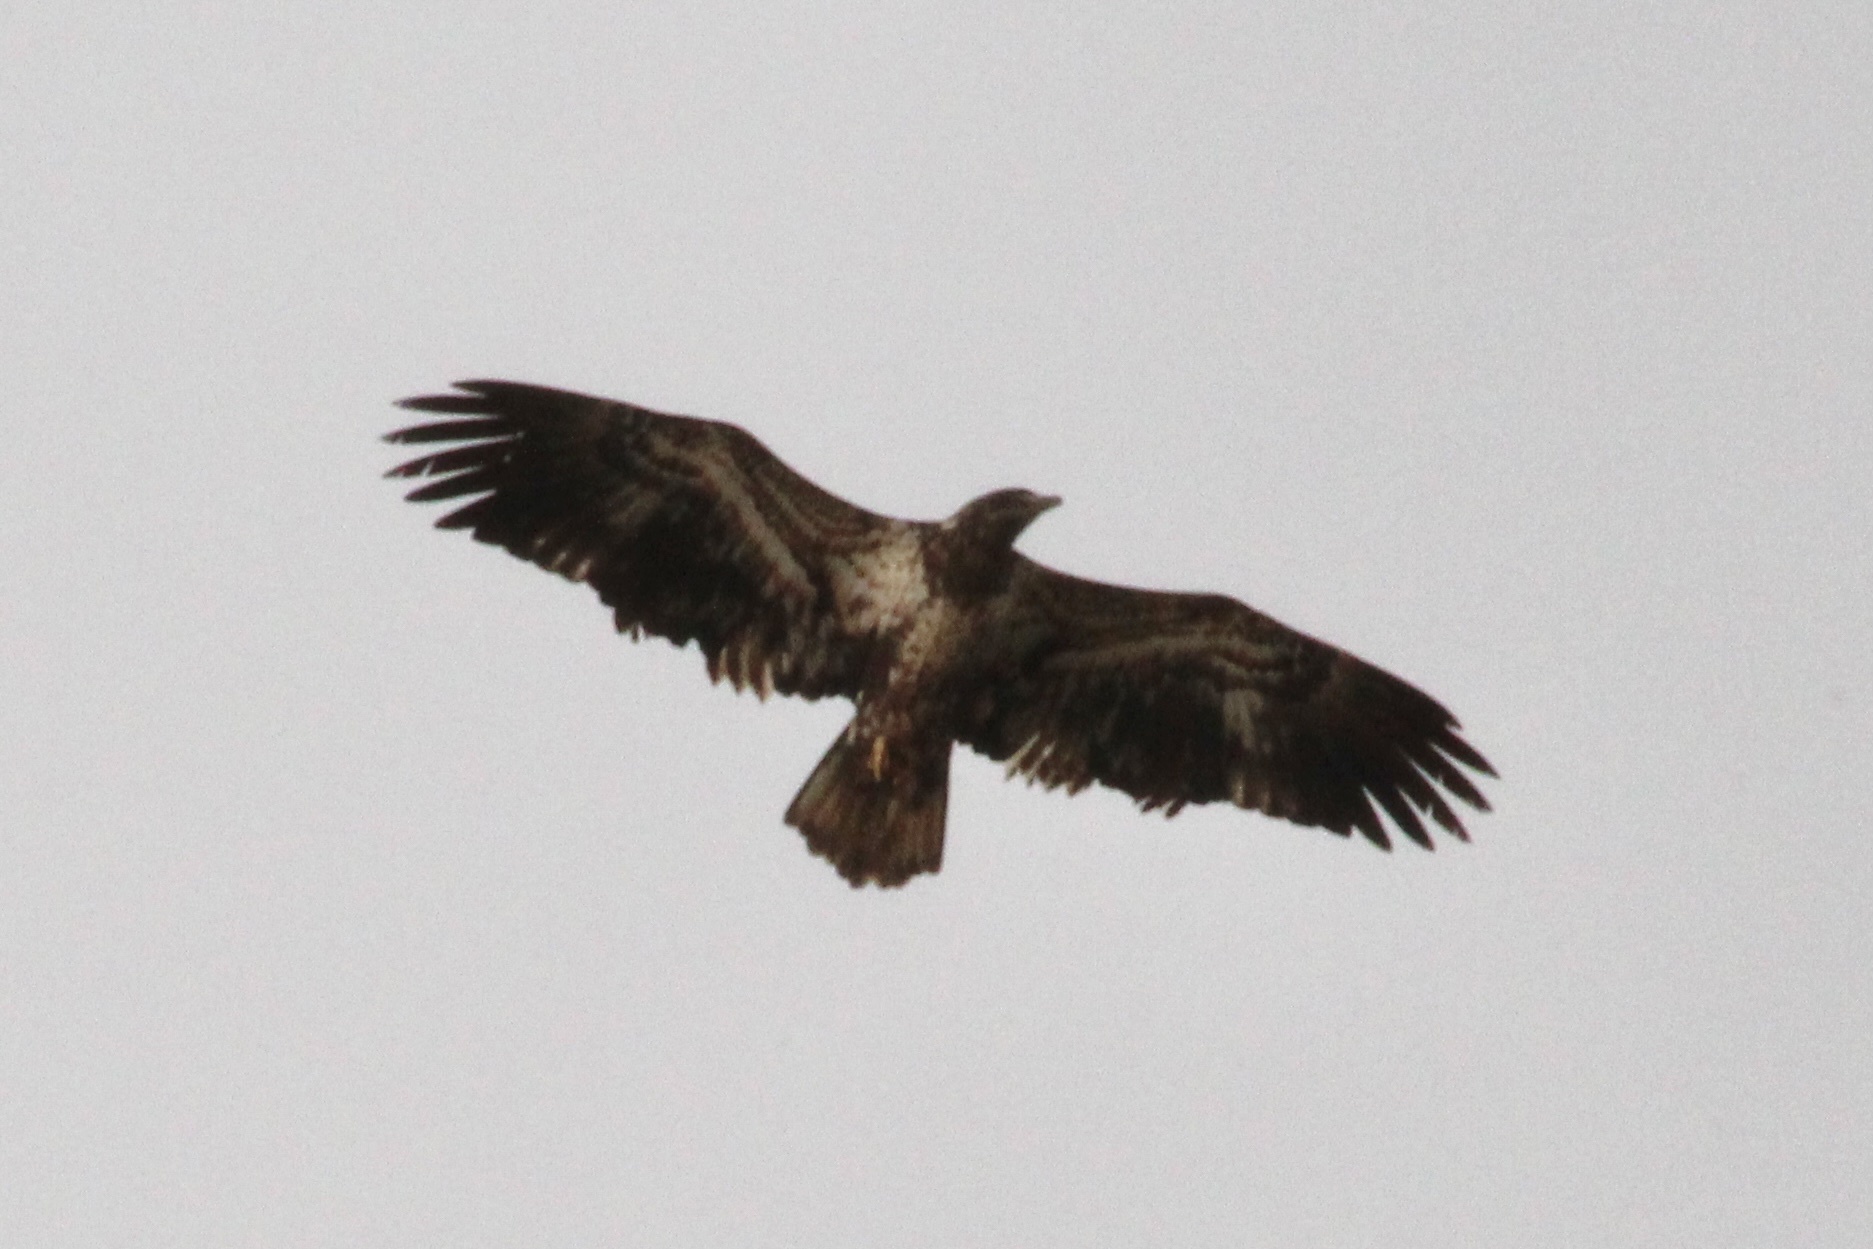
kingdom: Animalia
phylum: Chordata
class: Aves
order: Accipitriformes
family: Accipitridae
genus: Haliaeetus
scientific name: Haliaeetus leucocephalus
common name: Bald eagle
